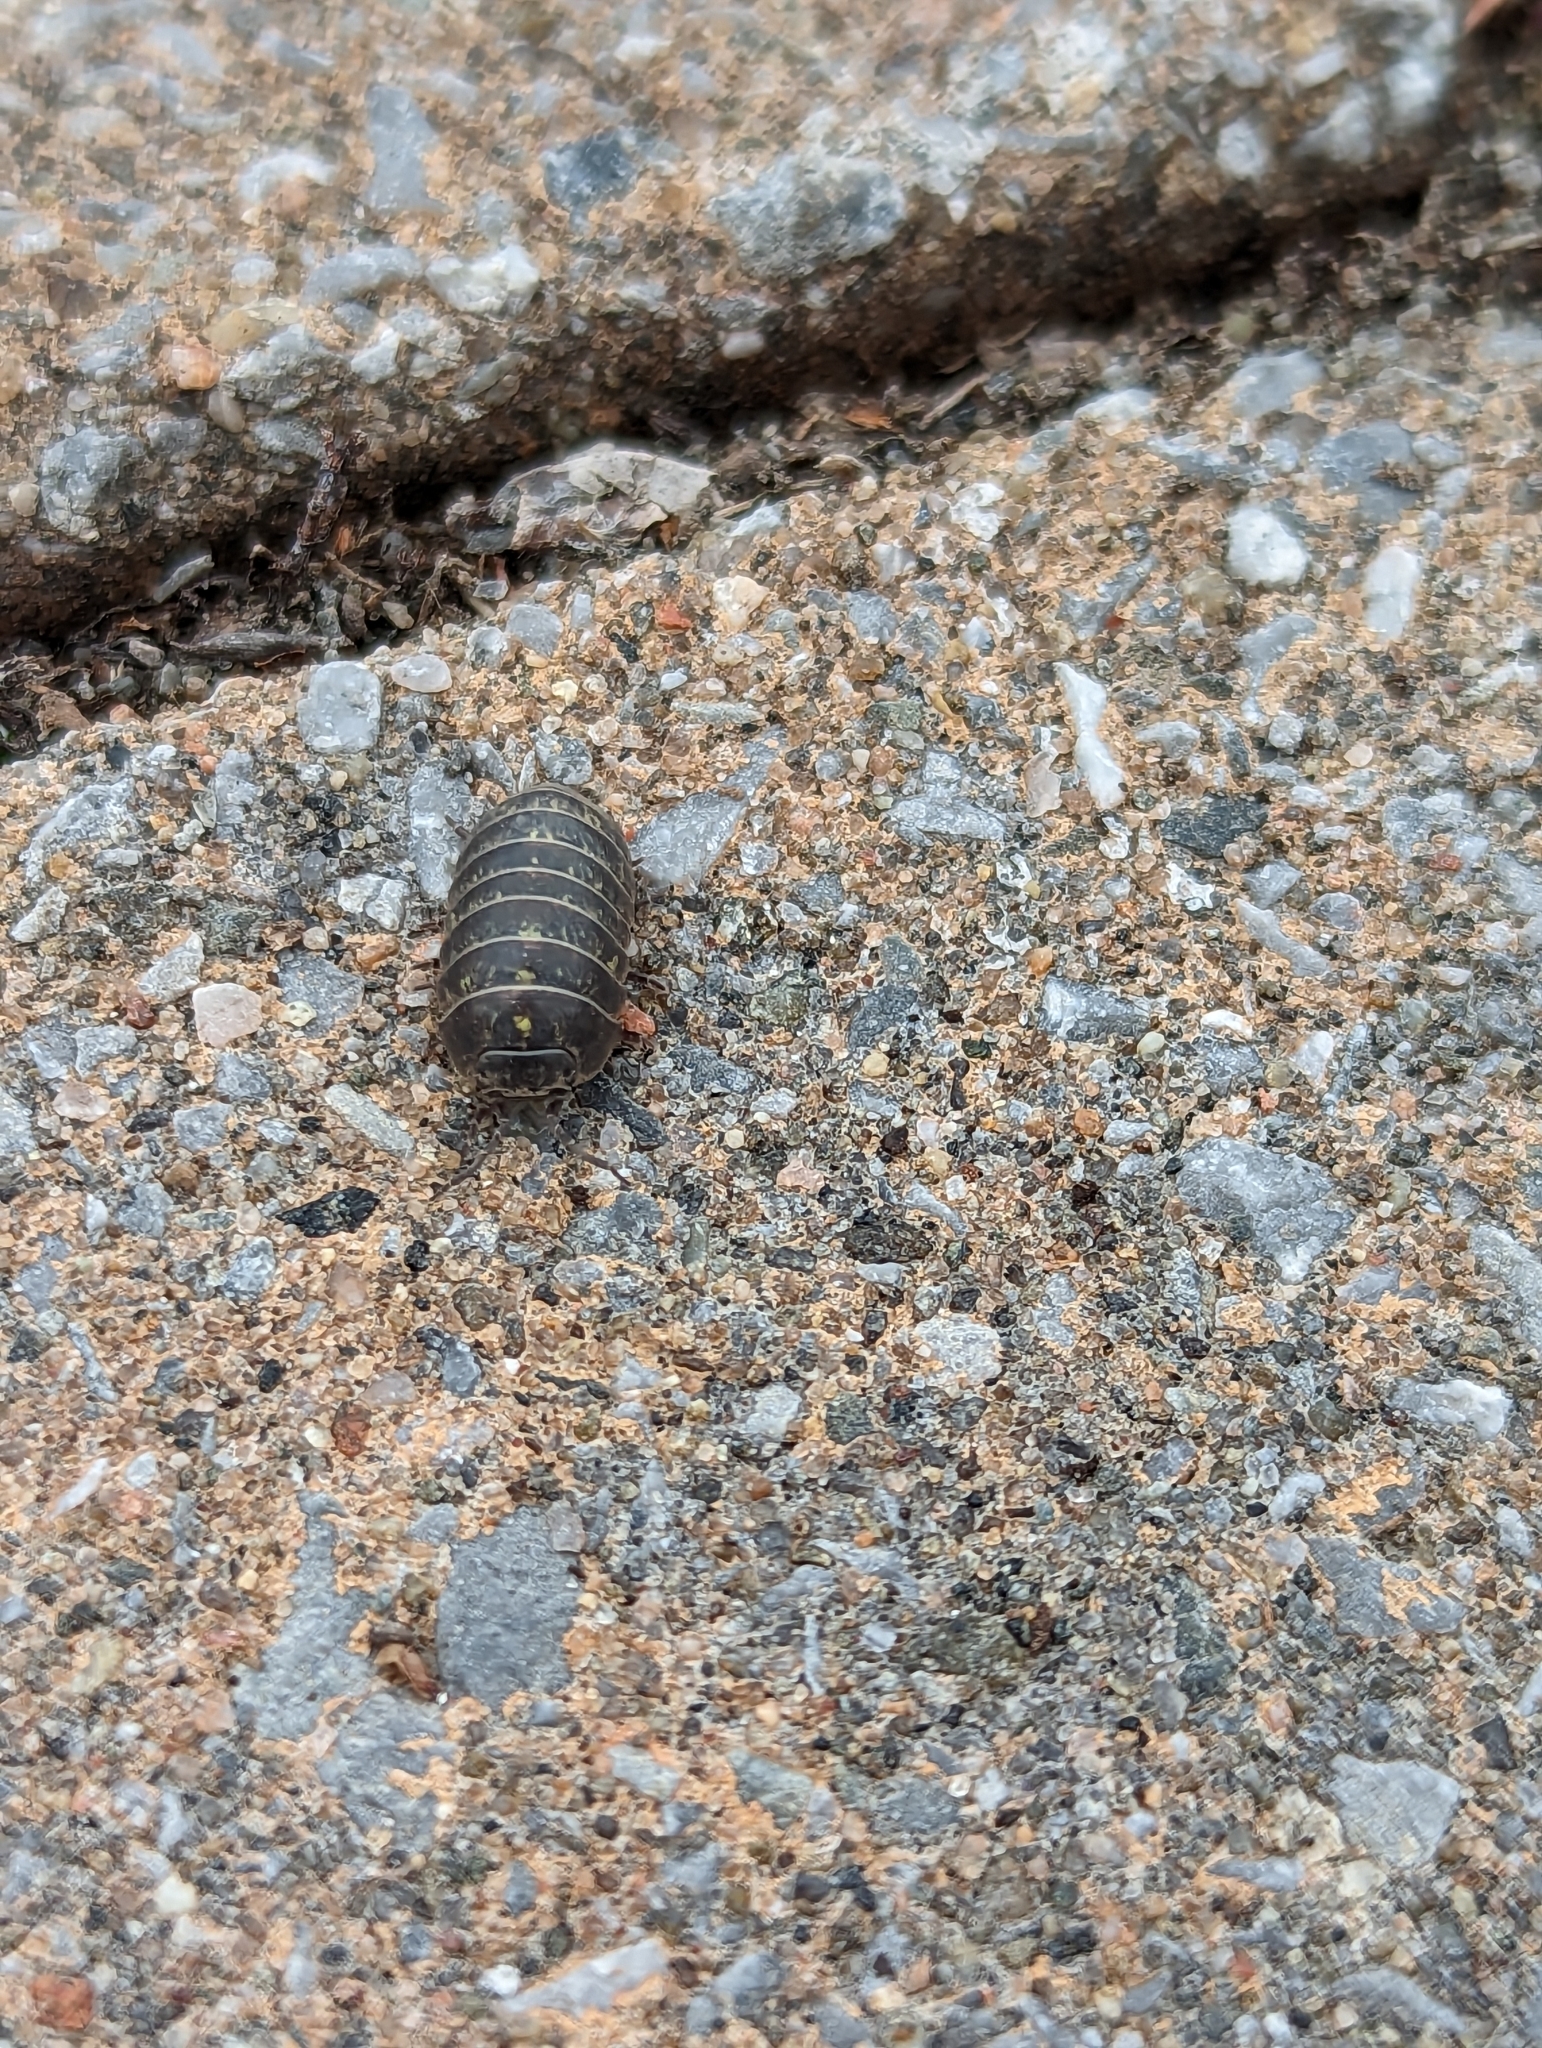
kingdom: Animalia
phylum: Arthropoda
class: Malacostraca
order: Isopoda
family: Armadillidiidae
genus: Armadillidium
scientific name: Armadillidium vulgare
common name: Common pill woodlouse
